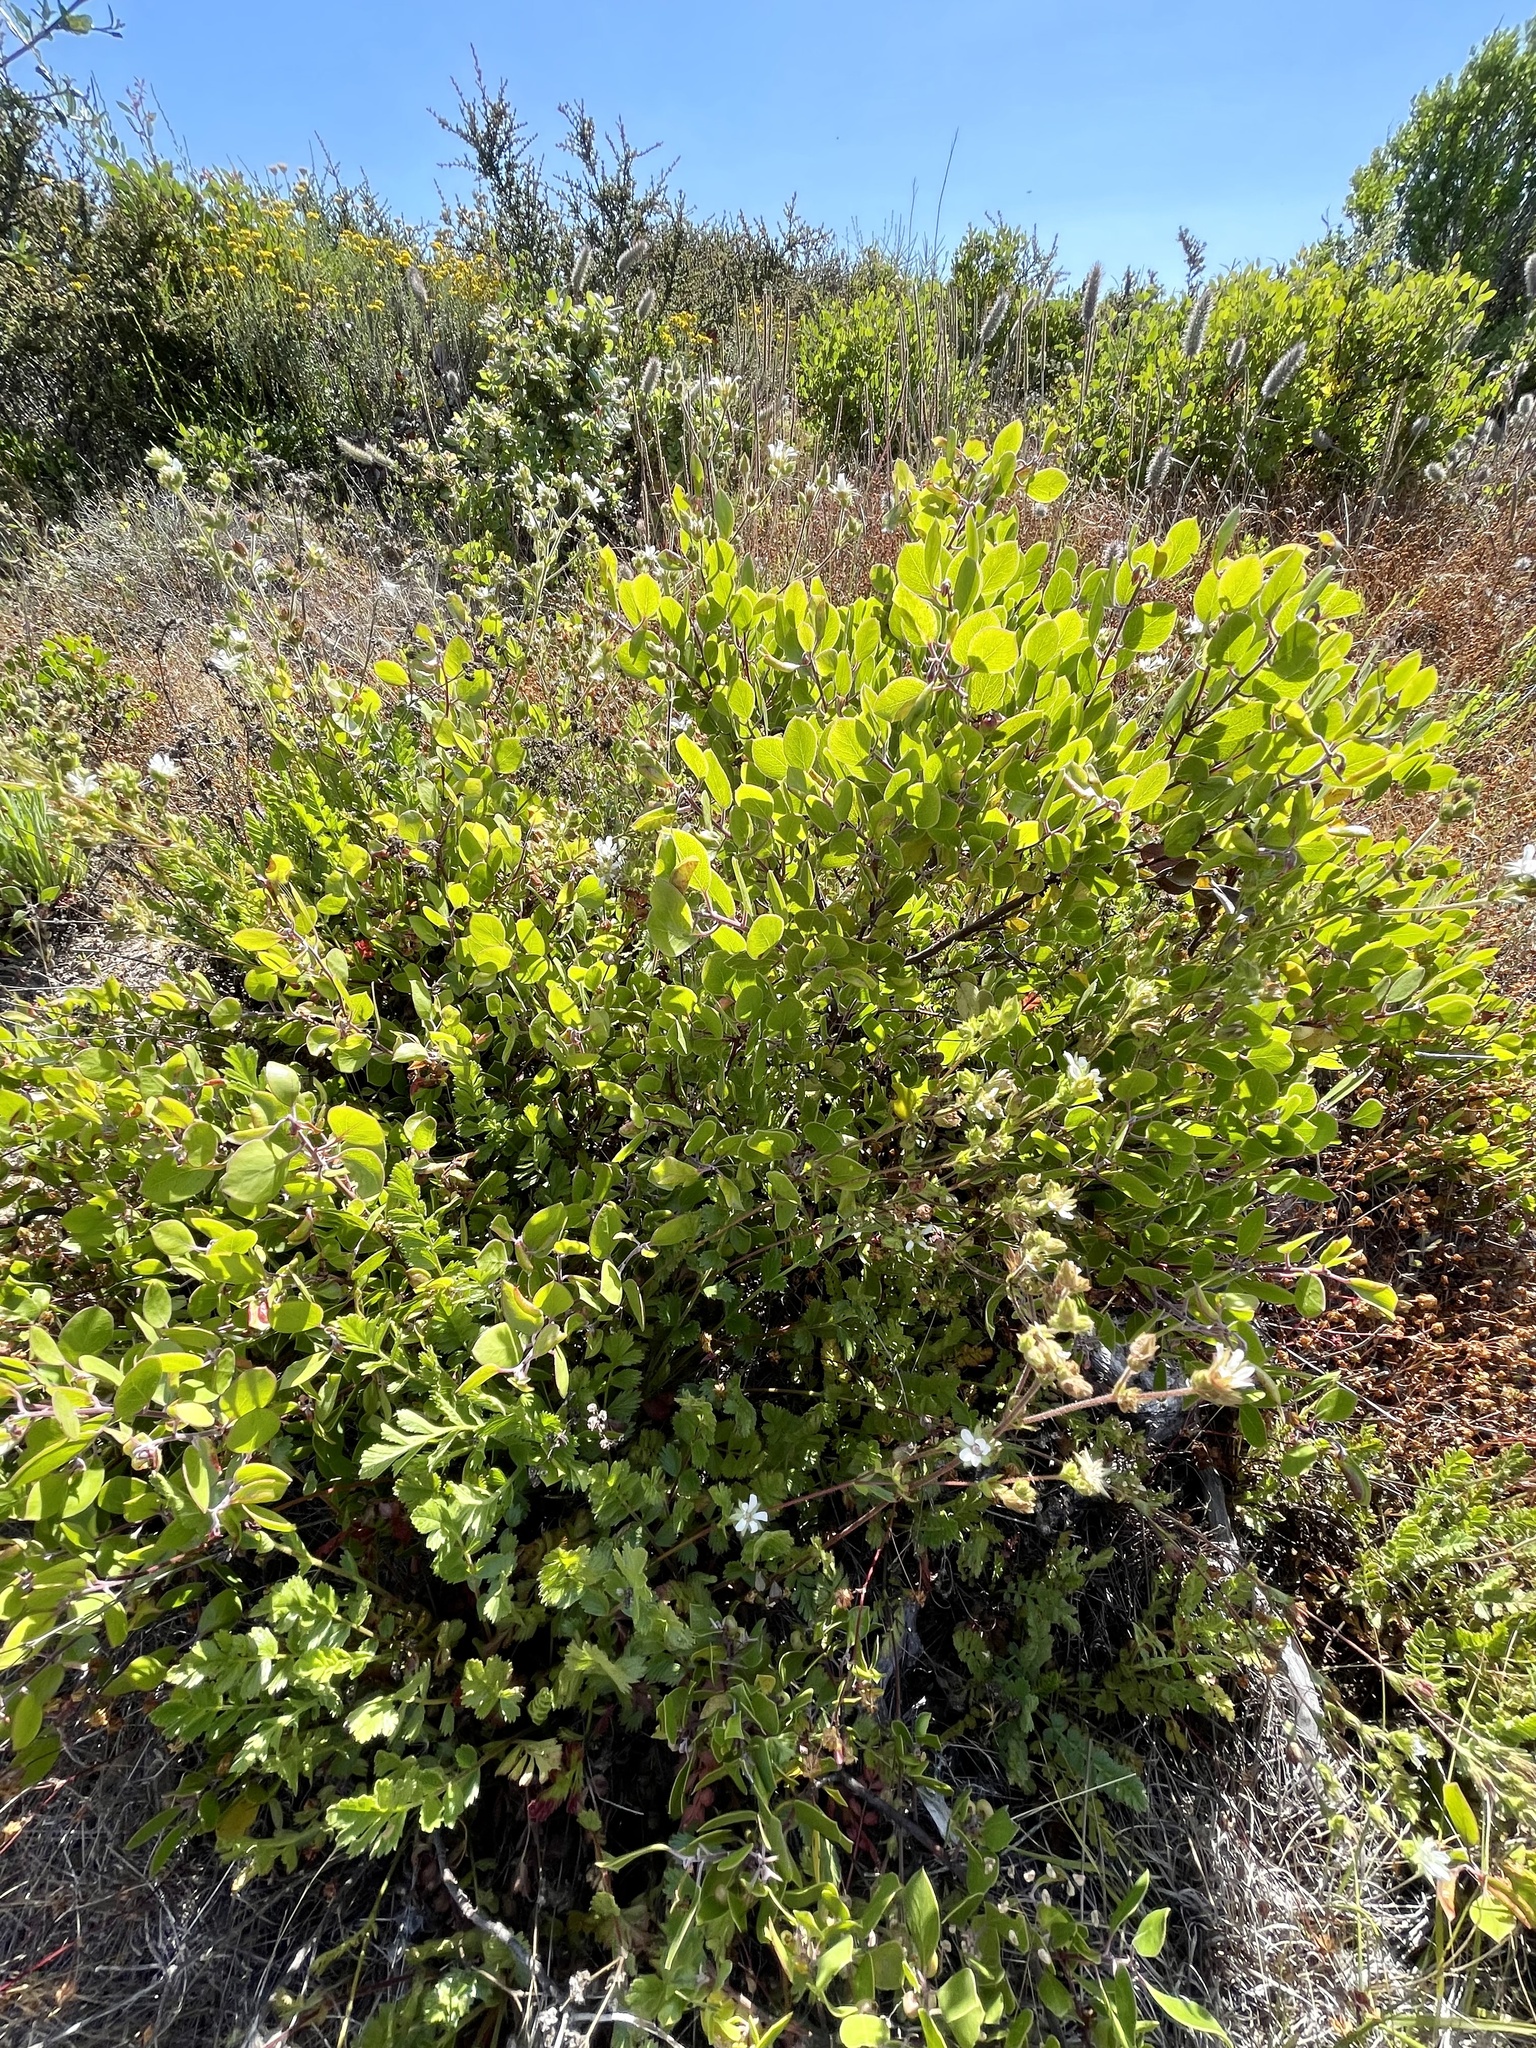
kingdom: Plantae
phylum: Tracheophyta
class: Magnoliopsida
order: Ericales
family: Ericaceae
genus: Arctostaphylos
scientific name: Arctostaphylos hookeri
